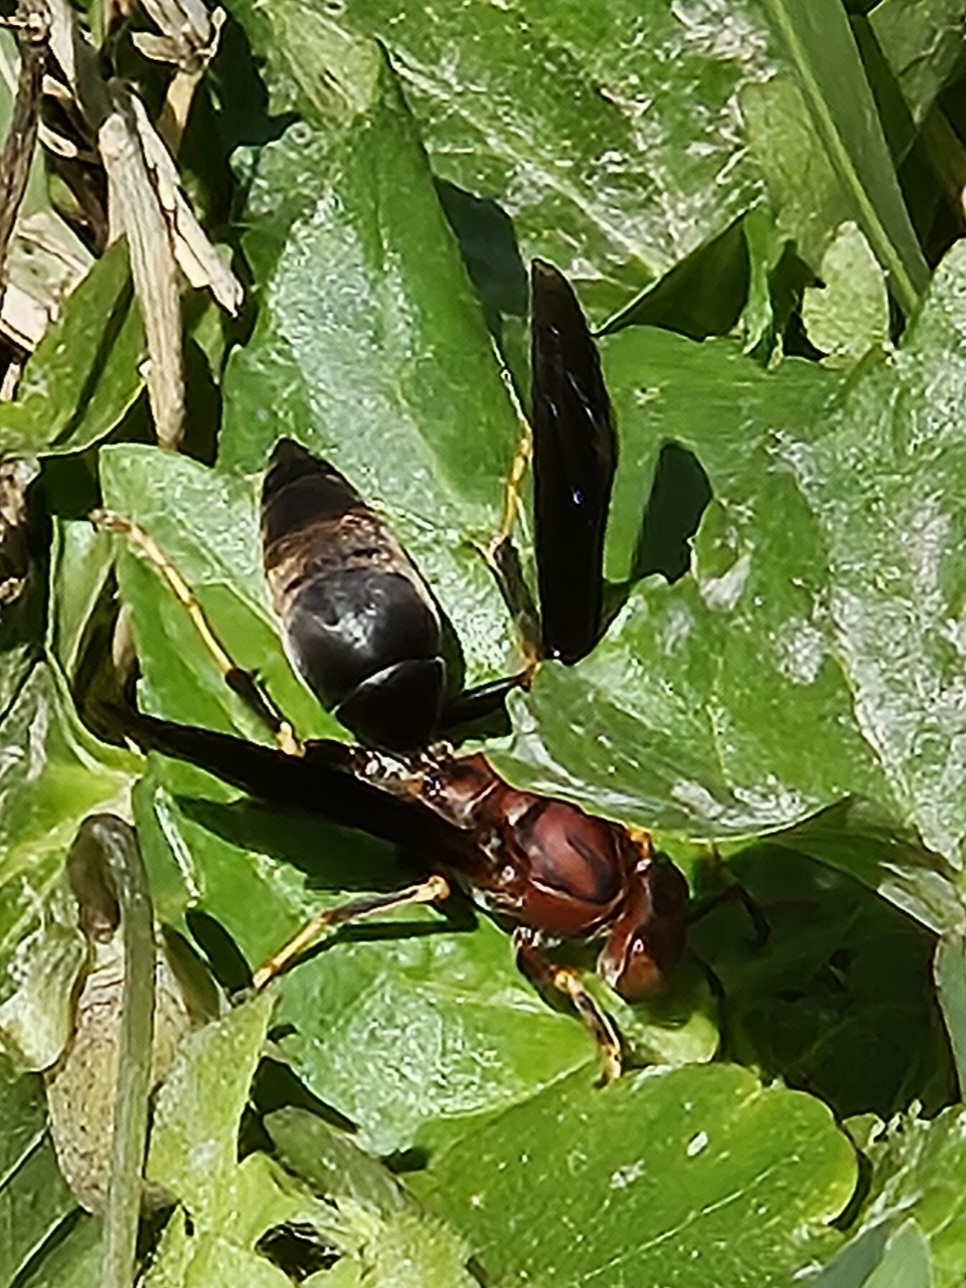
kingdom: Animalia
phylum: Arthropoda
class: Insecta
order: Hymenoptera
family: Eumenidae
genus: Polistes
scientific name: Polistes metricus
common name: Metric paper wasp
